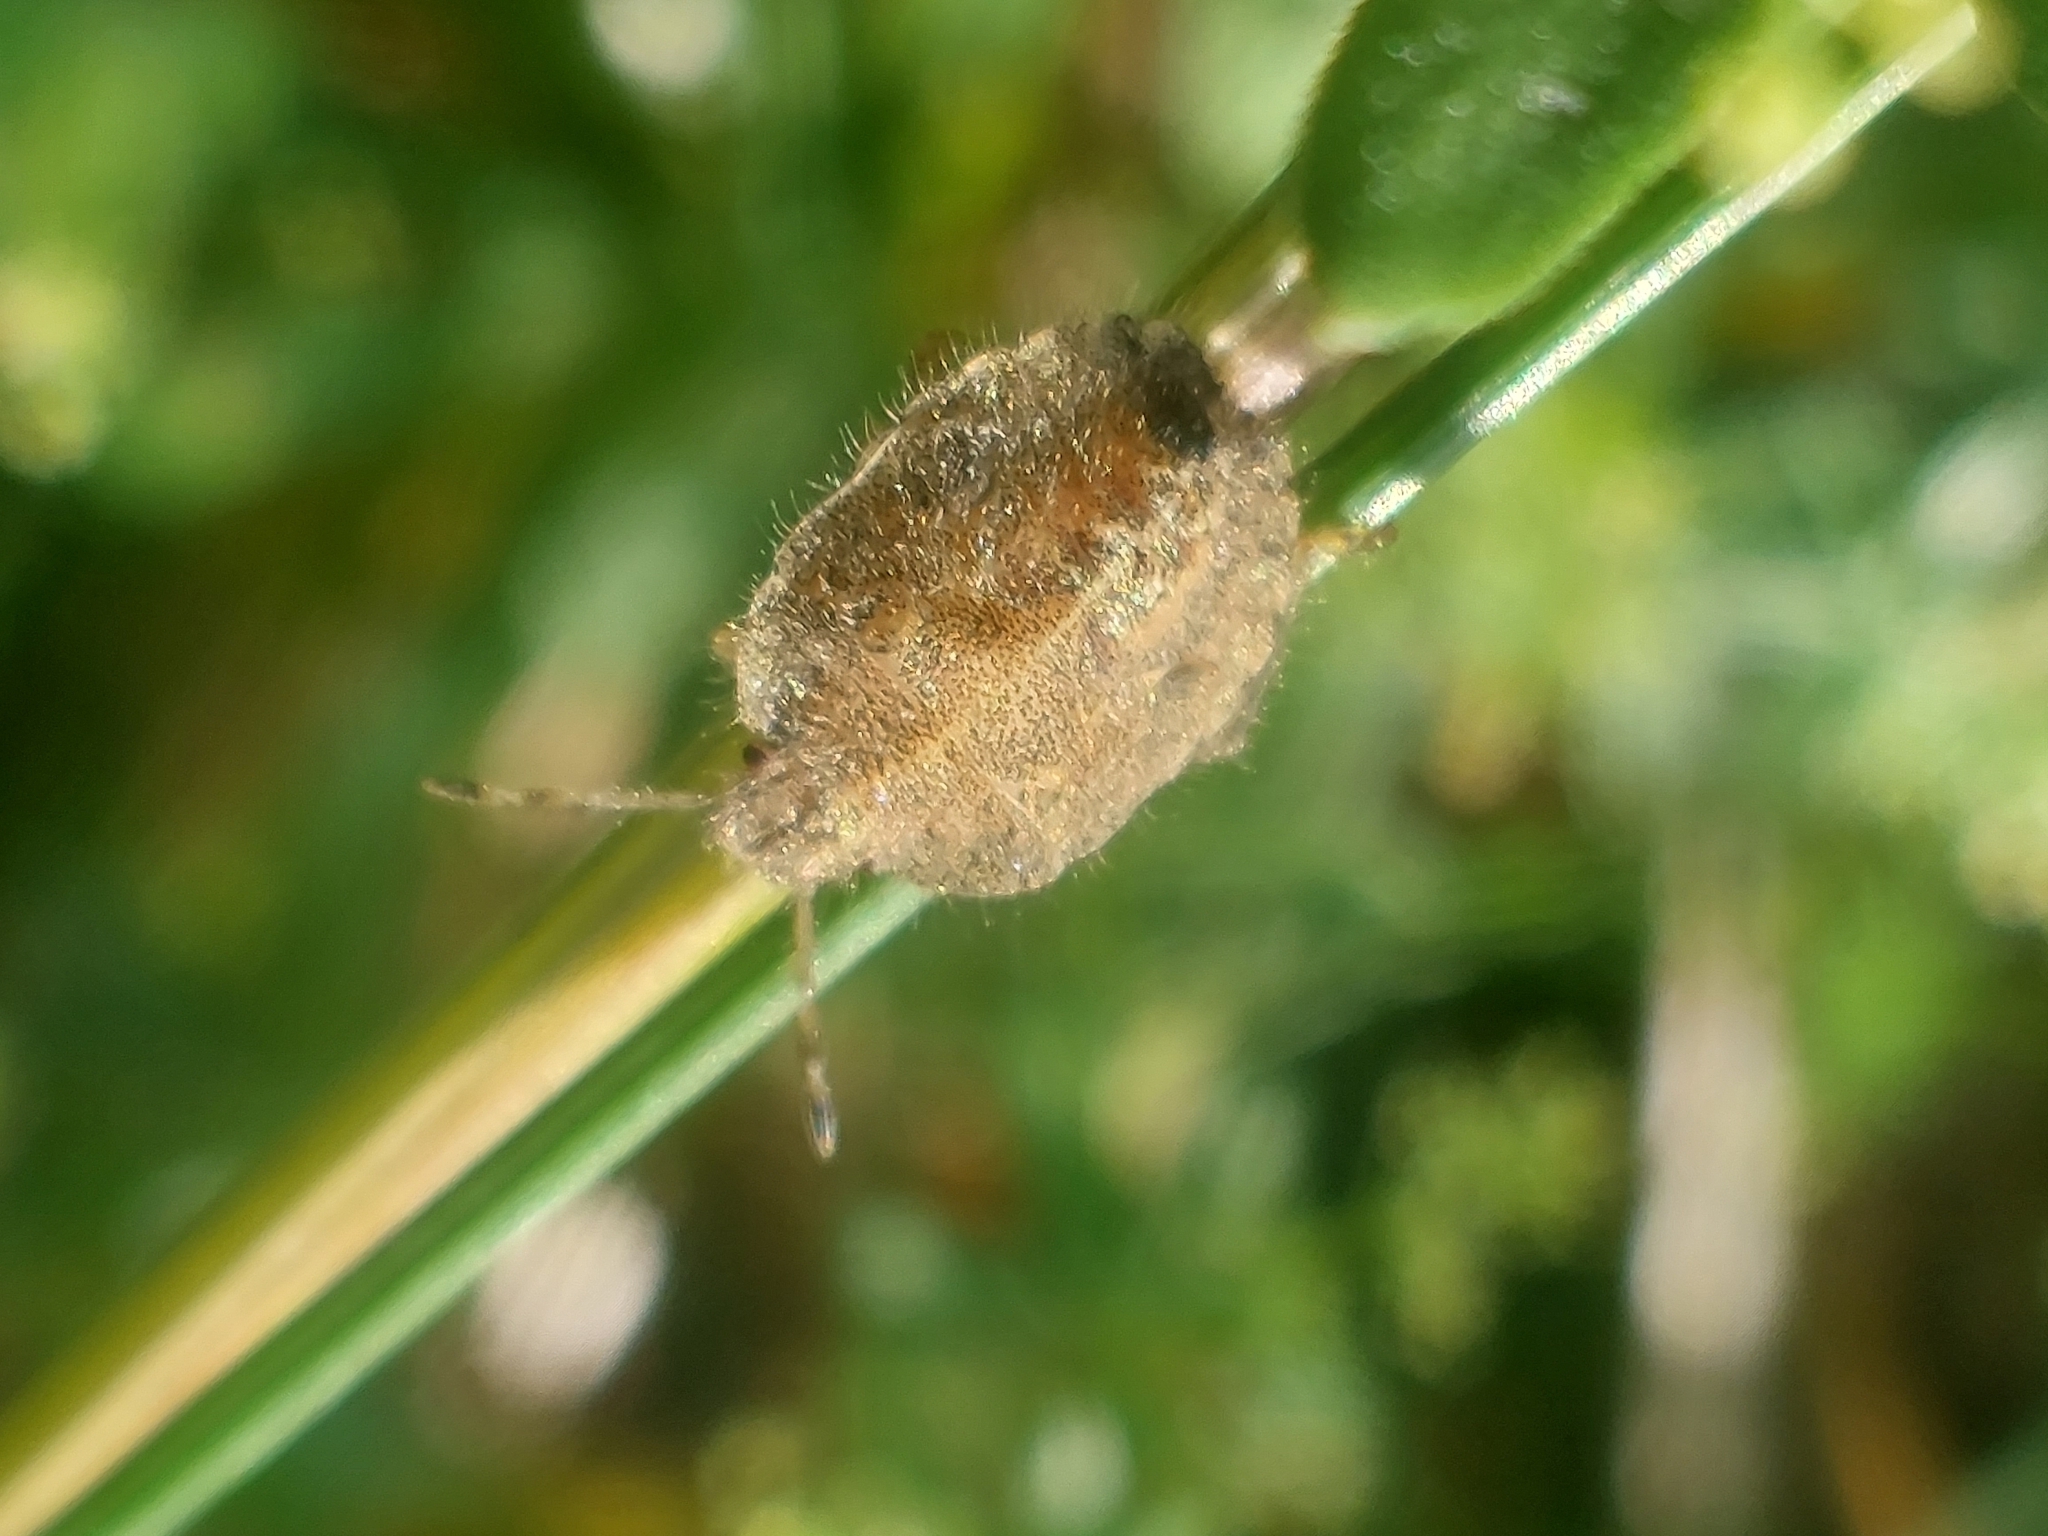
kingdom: Animalia
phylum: Arthropoda
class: Insecta
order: Hemiptera
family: Pentatomidae
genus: Dolycoris
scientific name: Dolycoris baccarum
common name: Sloe bug
